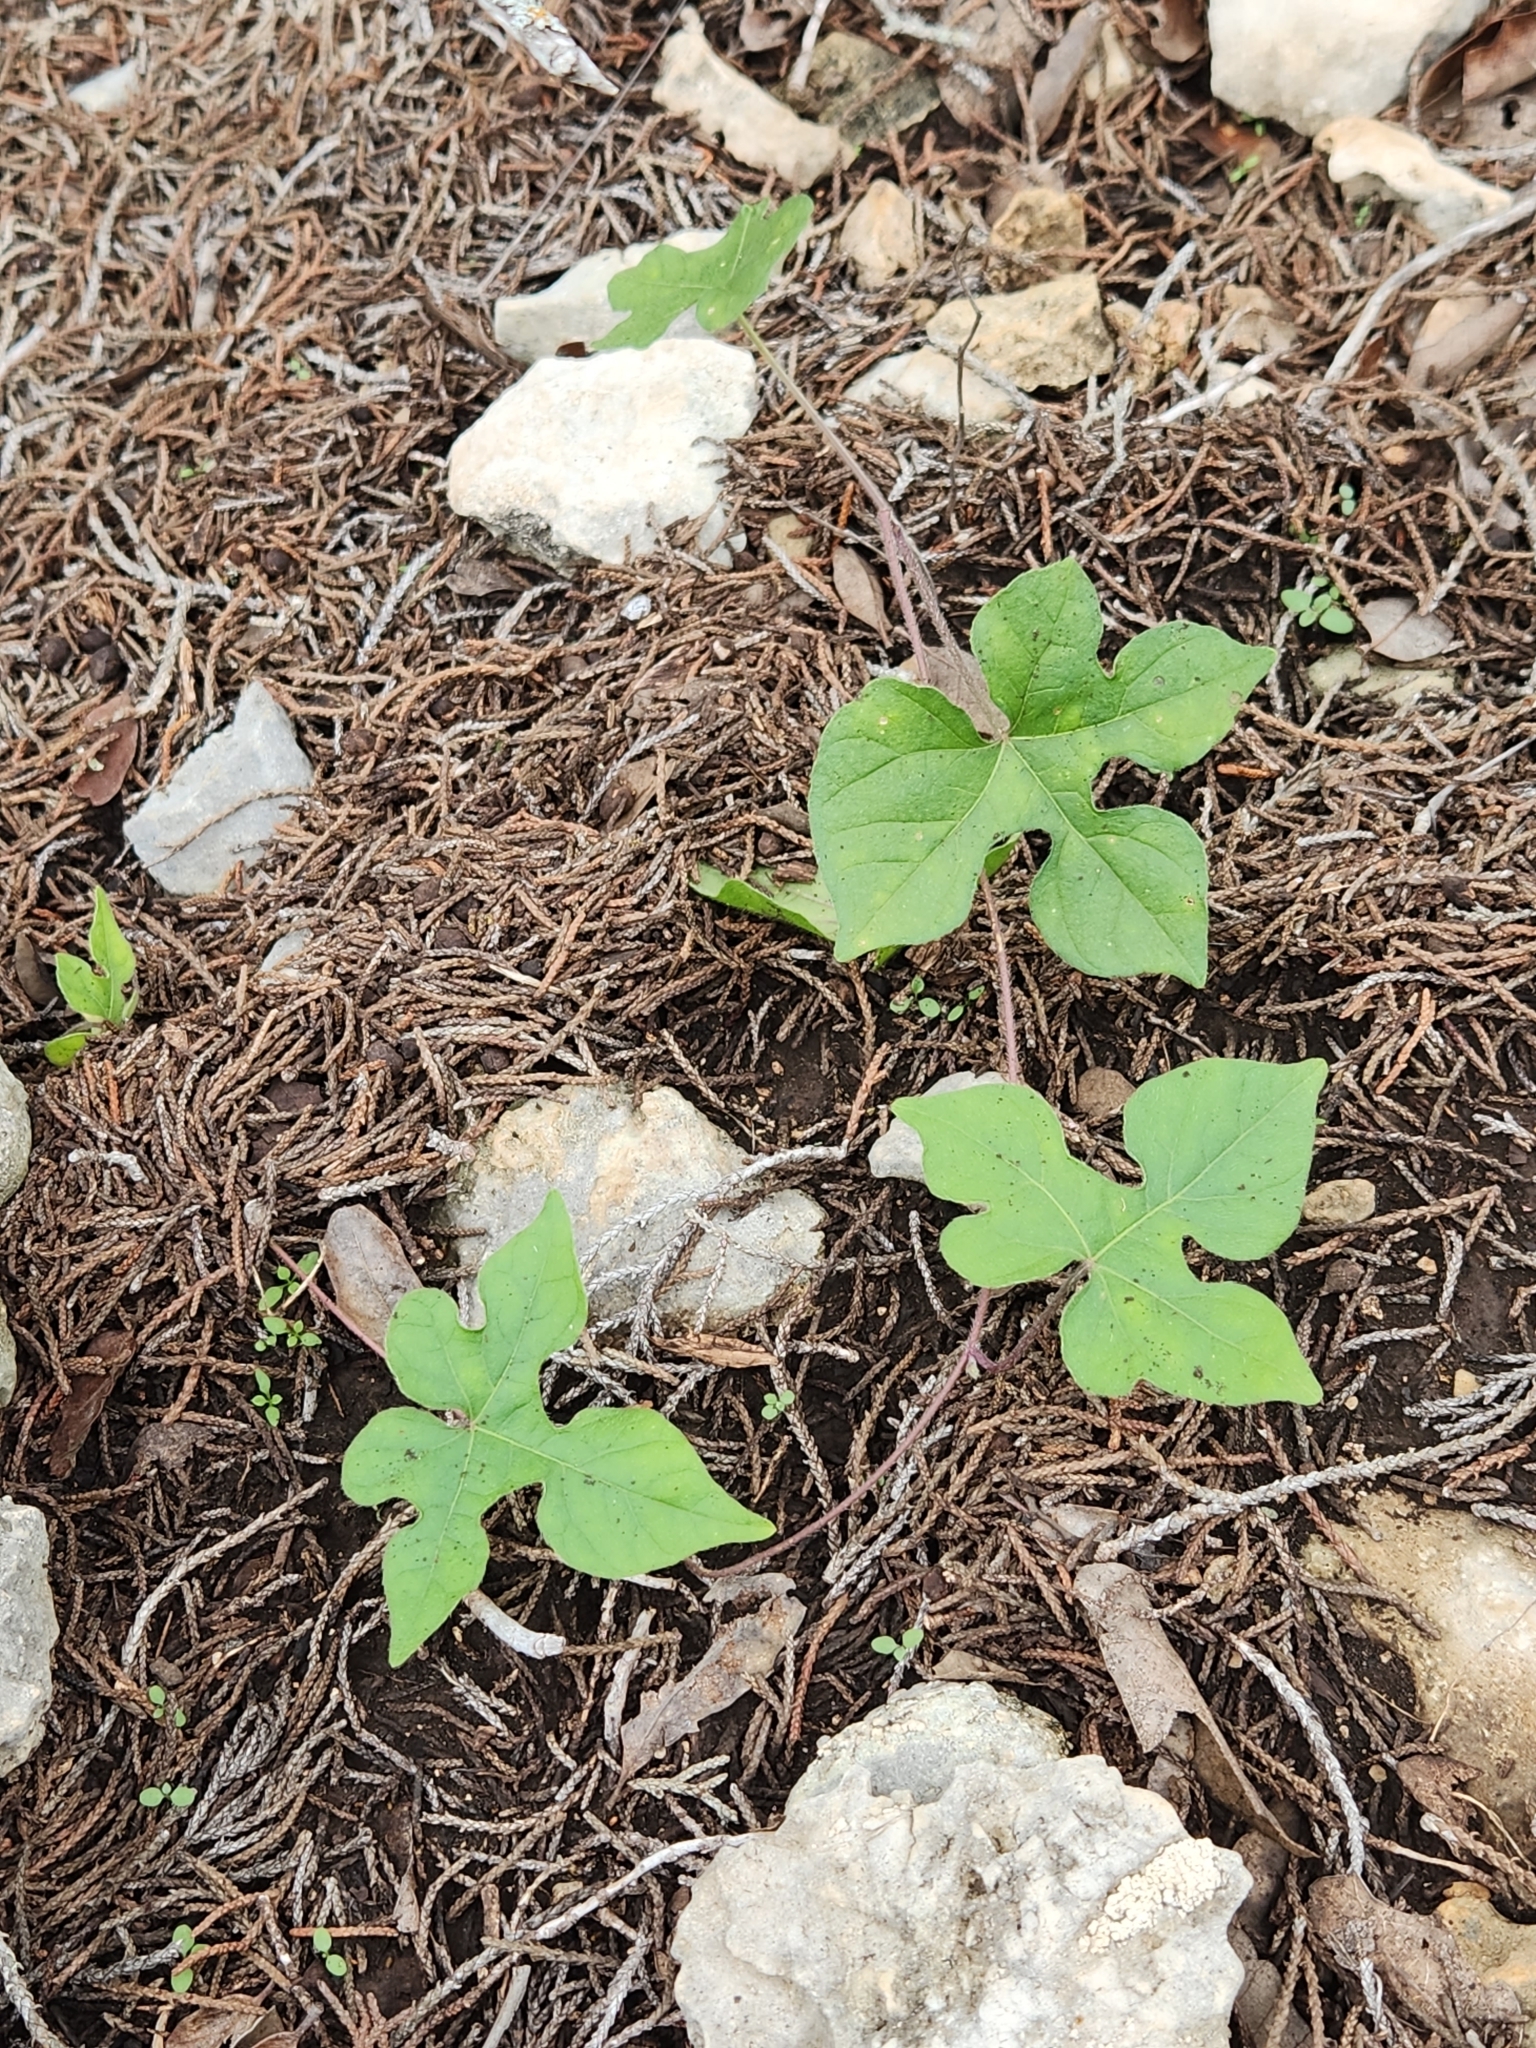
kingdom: Plantae
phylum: Tracheophyta
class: Magnoliopsida
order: Solanales
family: Convolvulaceae
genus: Ipomoea
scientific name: Ipomoea lindheimeri
